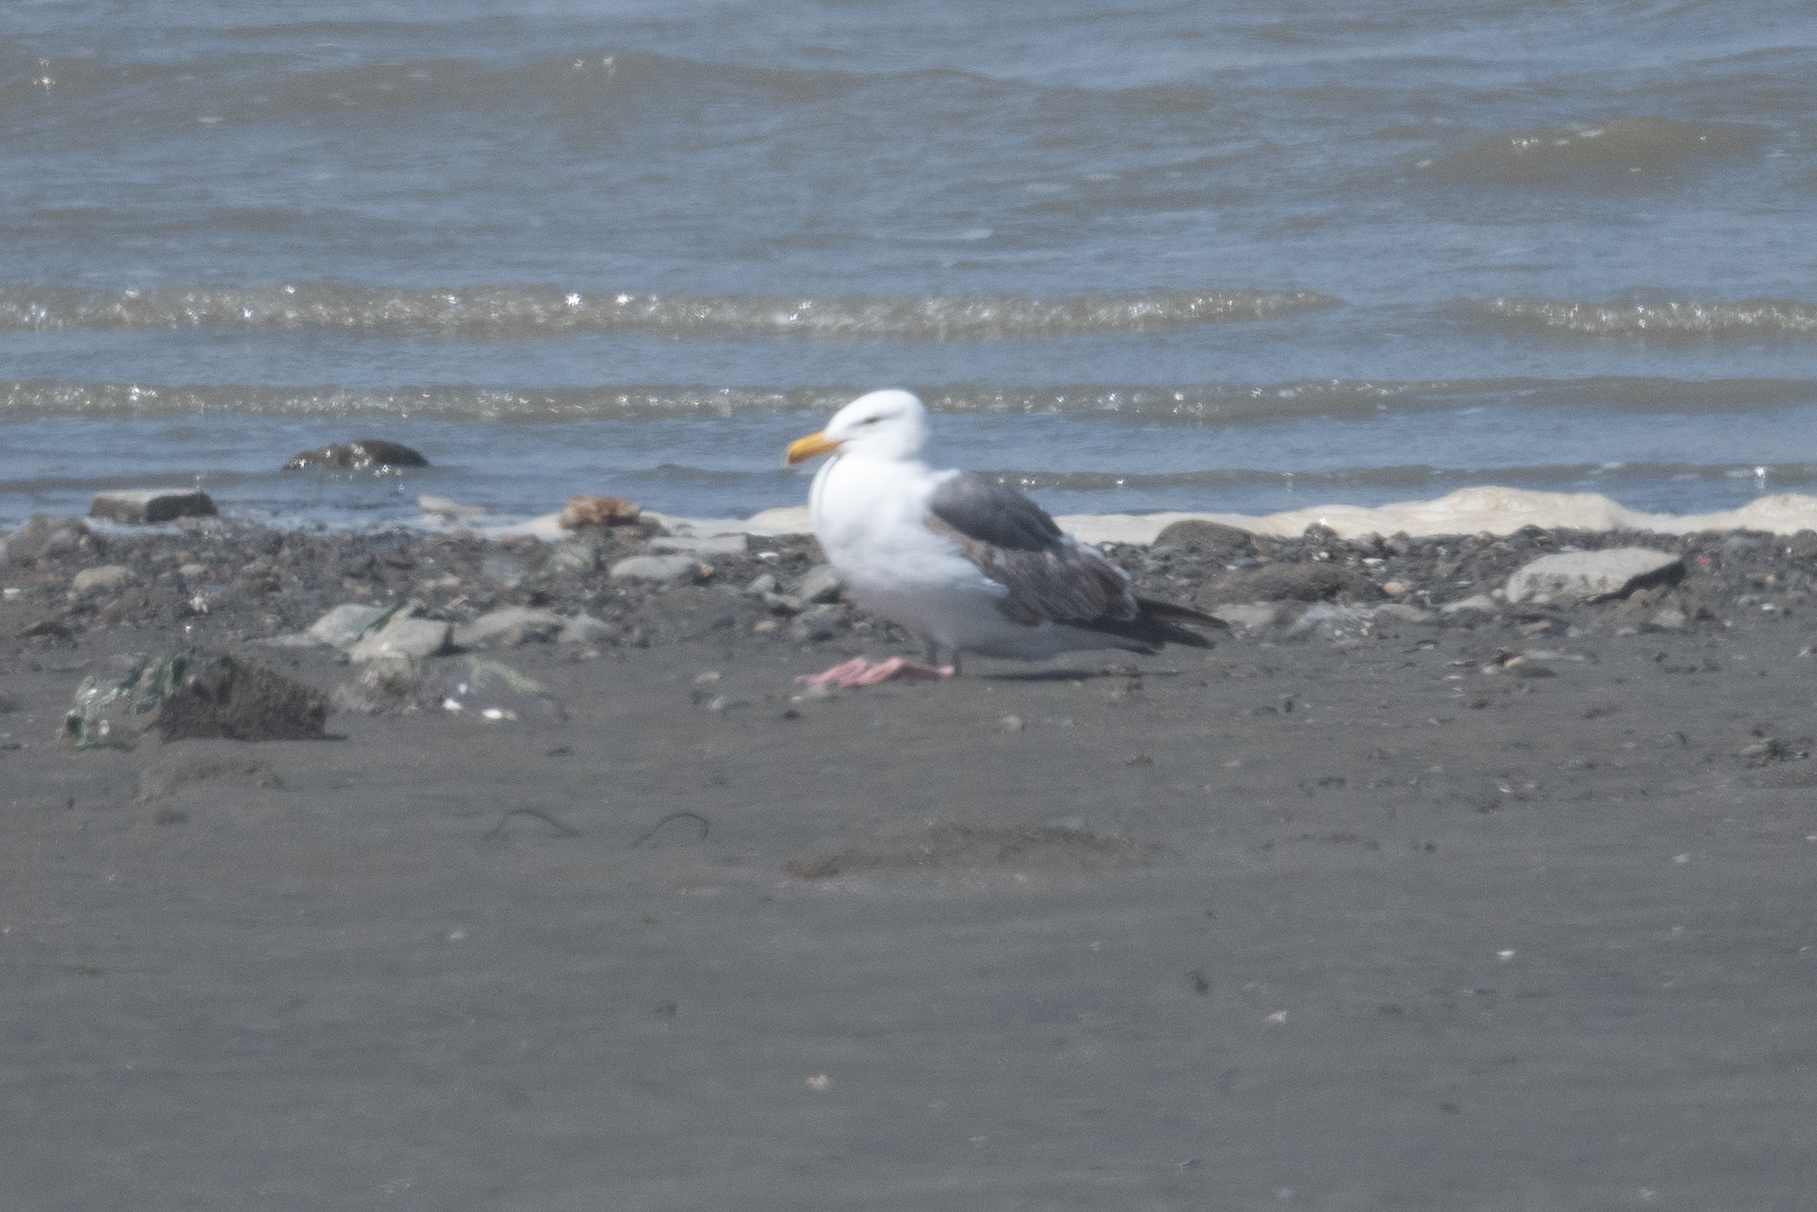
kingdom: Animalia
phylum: Chordata
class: Aves
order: Charadriiformes
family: Laridae
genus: Larus
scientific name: Larus occidentalis
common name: Western gull
